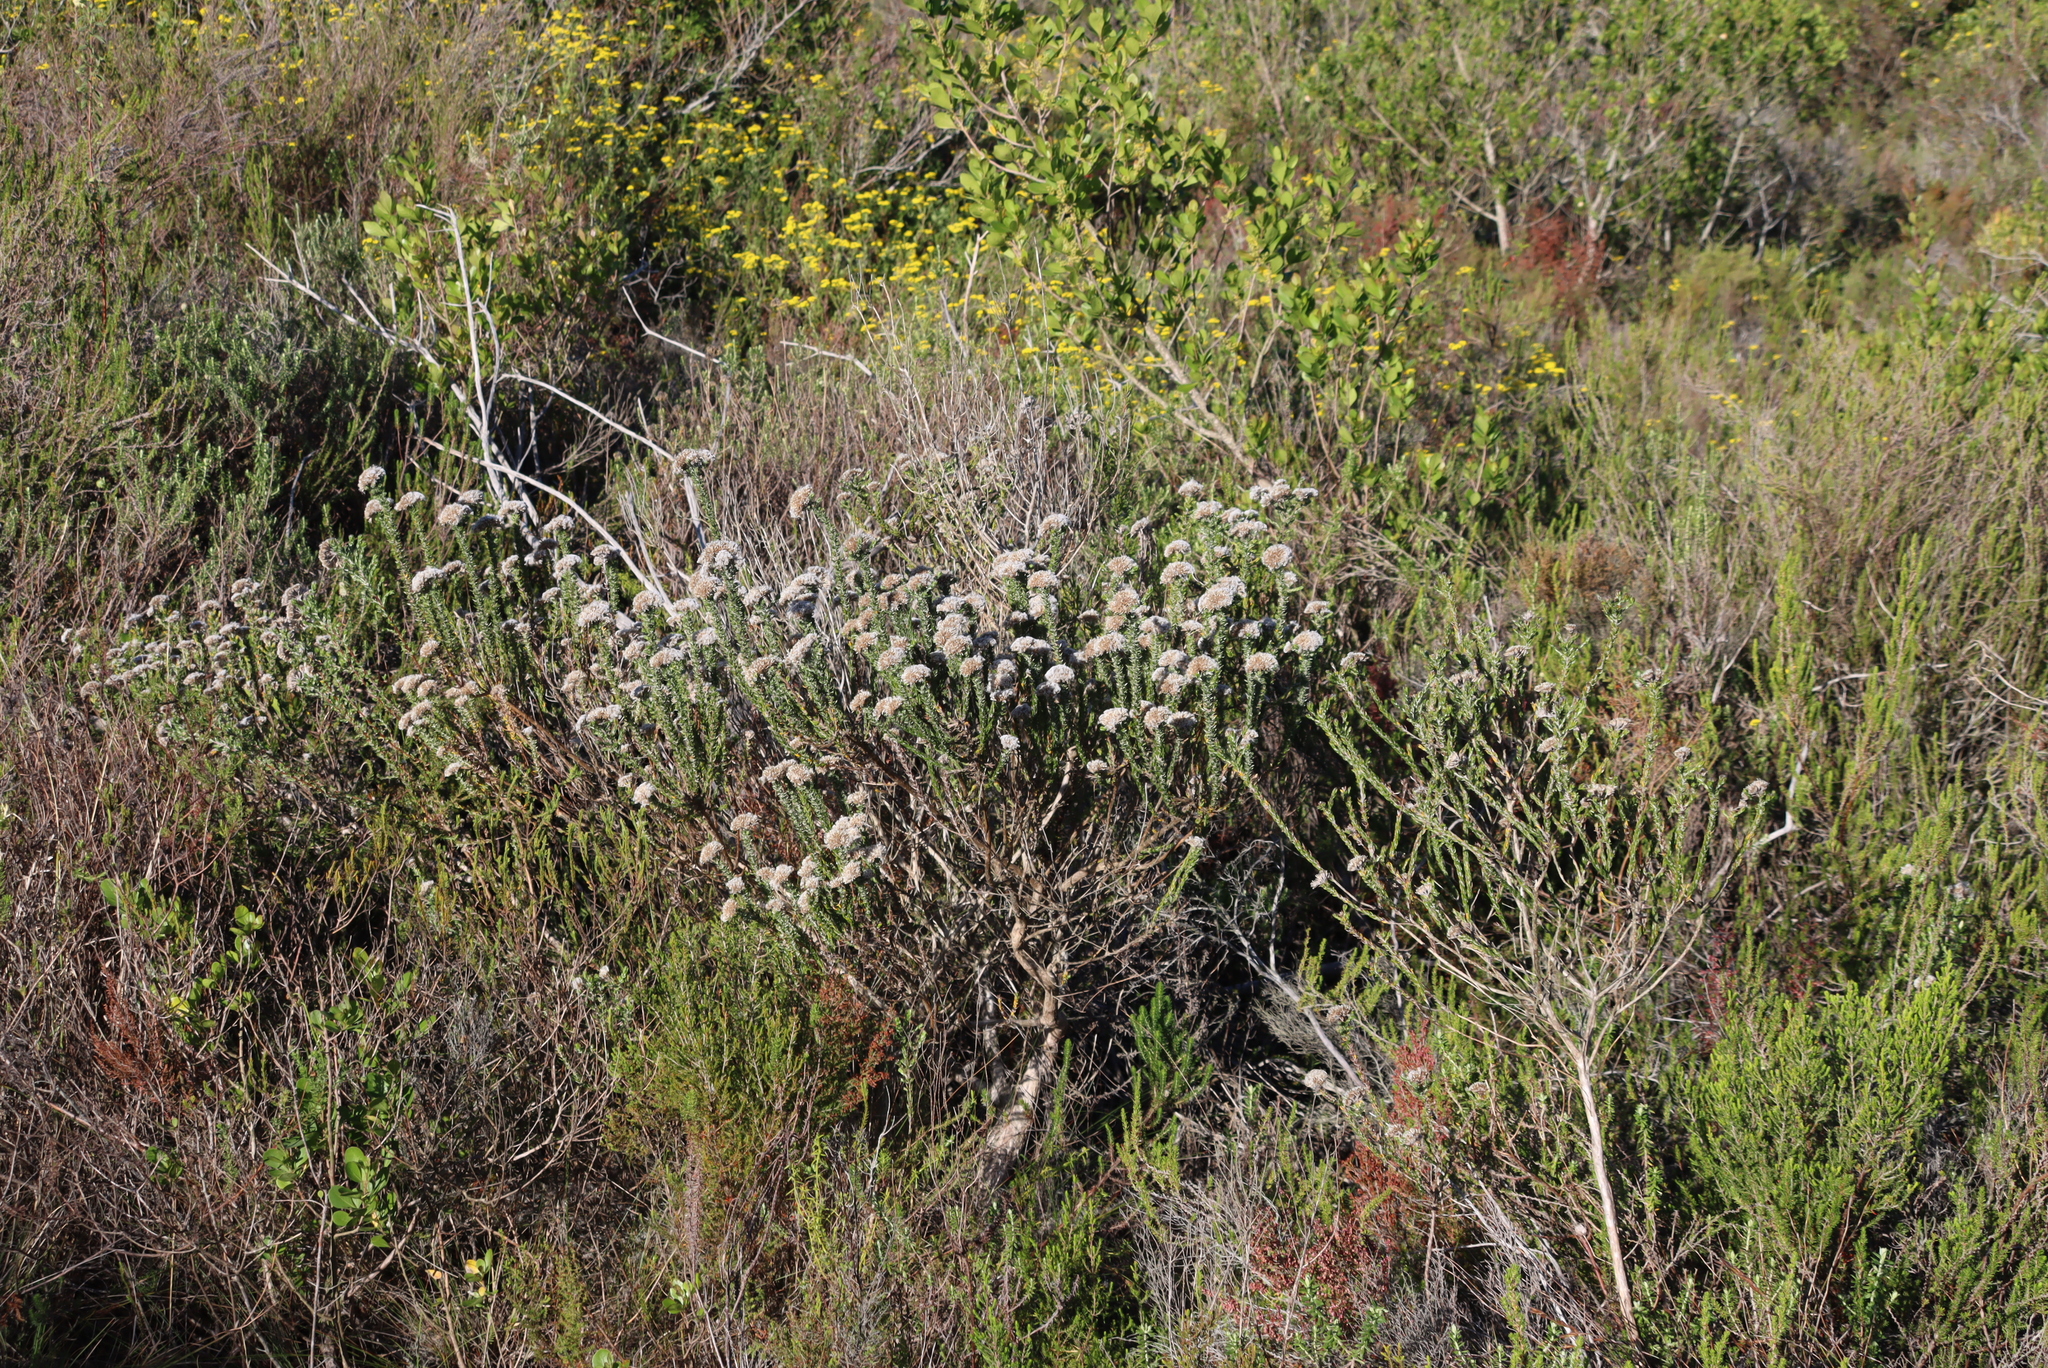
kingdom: Plantae
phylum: Tracheophyta
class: Magnoliopsida
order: Asterales
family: Asteraceae
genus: Metalasia
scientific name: Metalasia pungens
